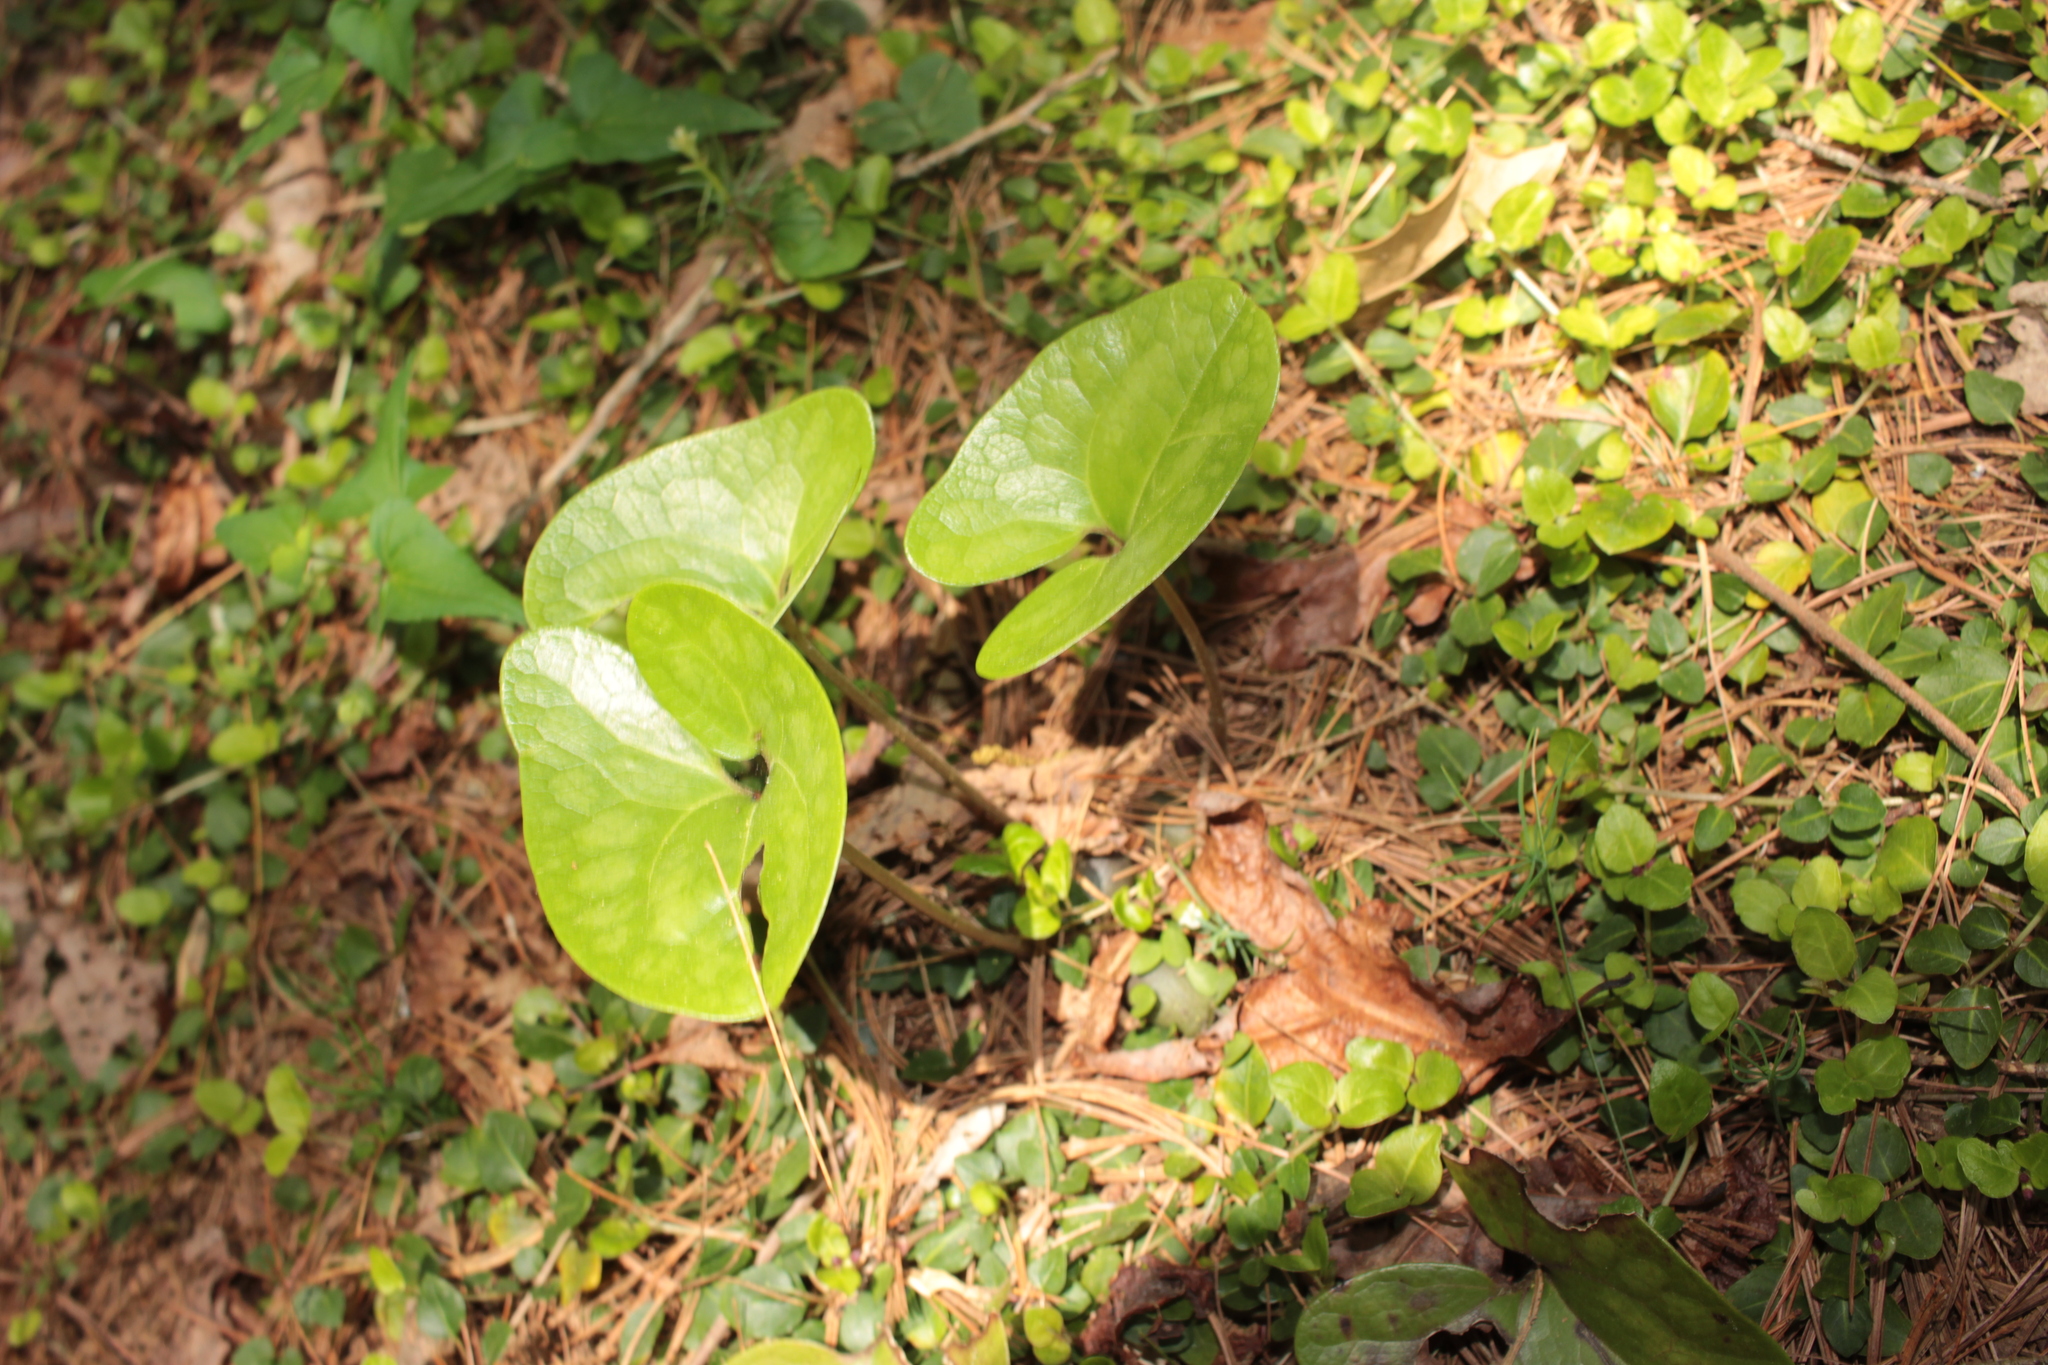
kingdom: Plantae
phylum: Tracheophyta
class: Magnoliopsida
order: Piperales
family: Aristolochiaceae
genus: Hexastylis
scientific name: Hexastylis arifolia
